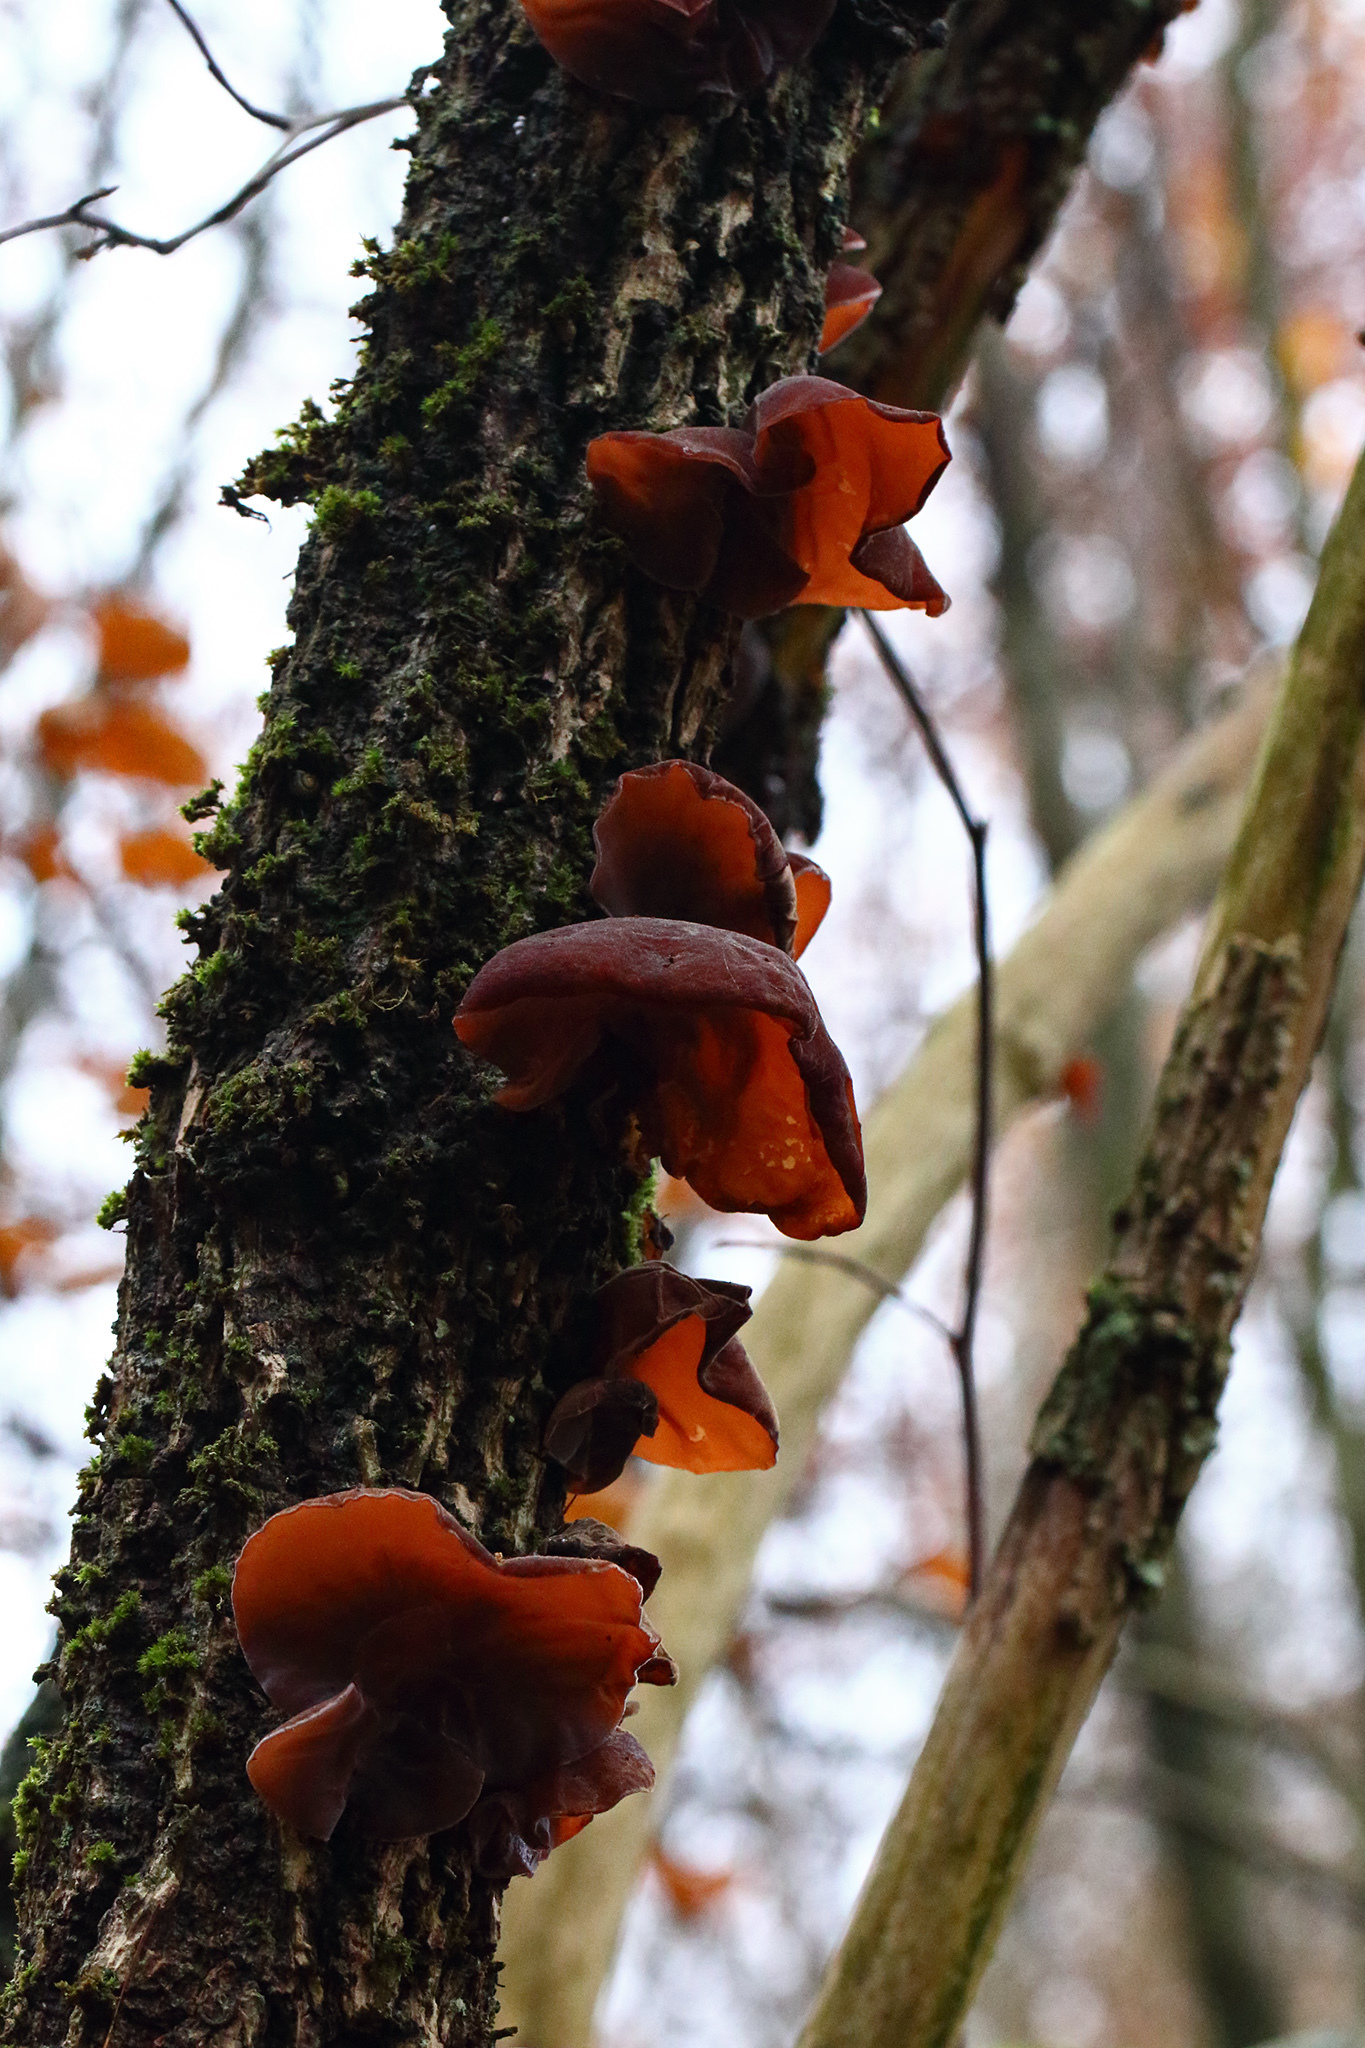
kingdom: Fungi
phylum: Basidiomycota
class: Agaricomycetes
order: Auriculariales
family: Auriculariaceae
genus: Auricularia
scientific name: Auricularia auricula-judae
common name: Jelly ear
